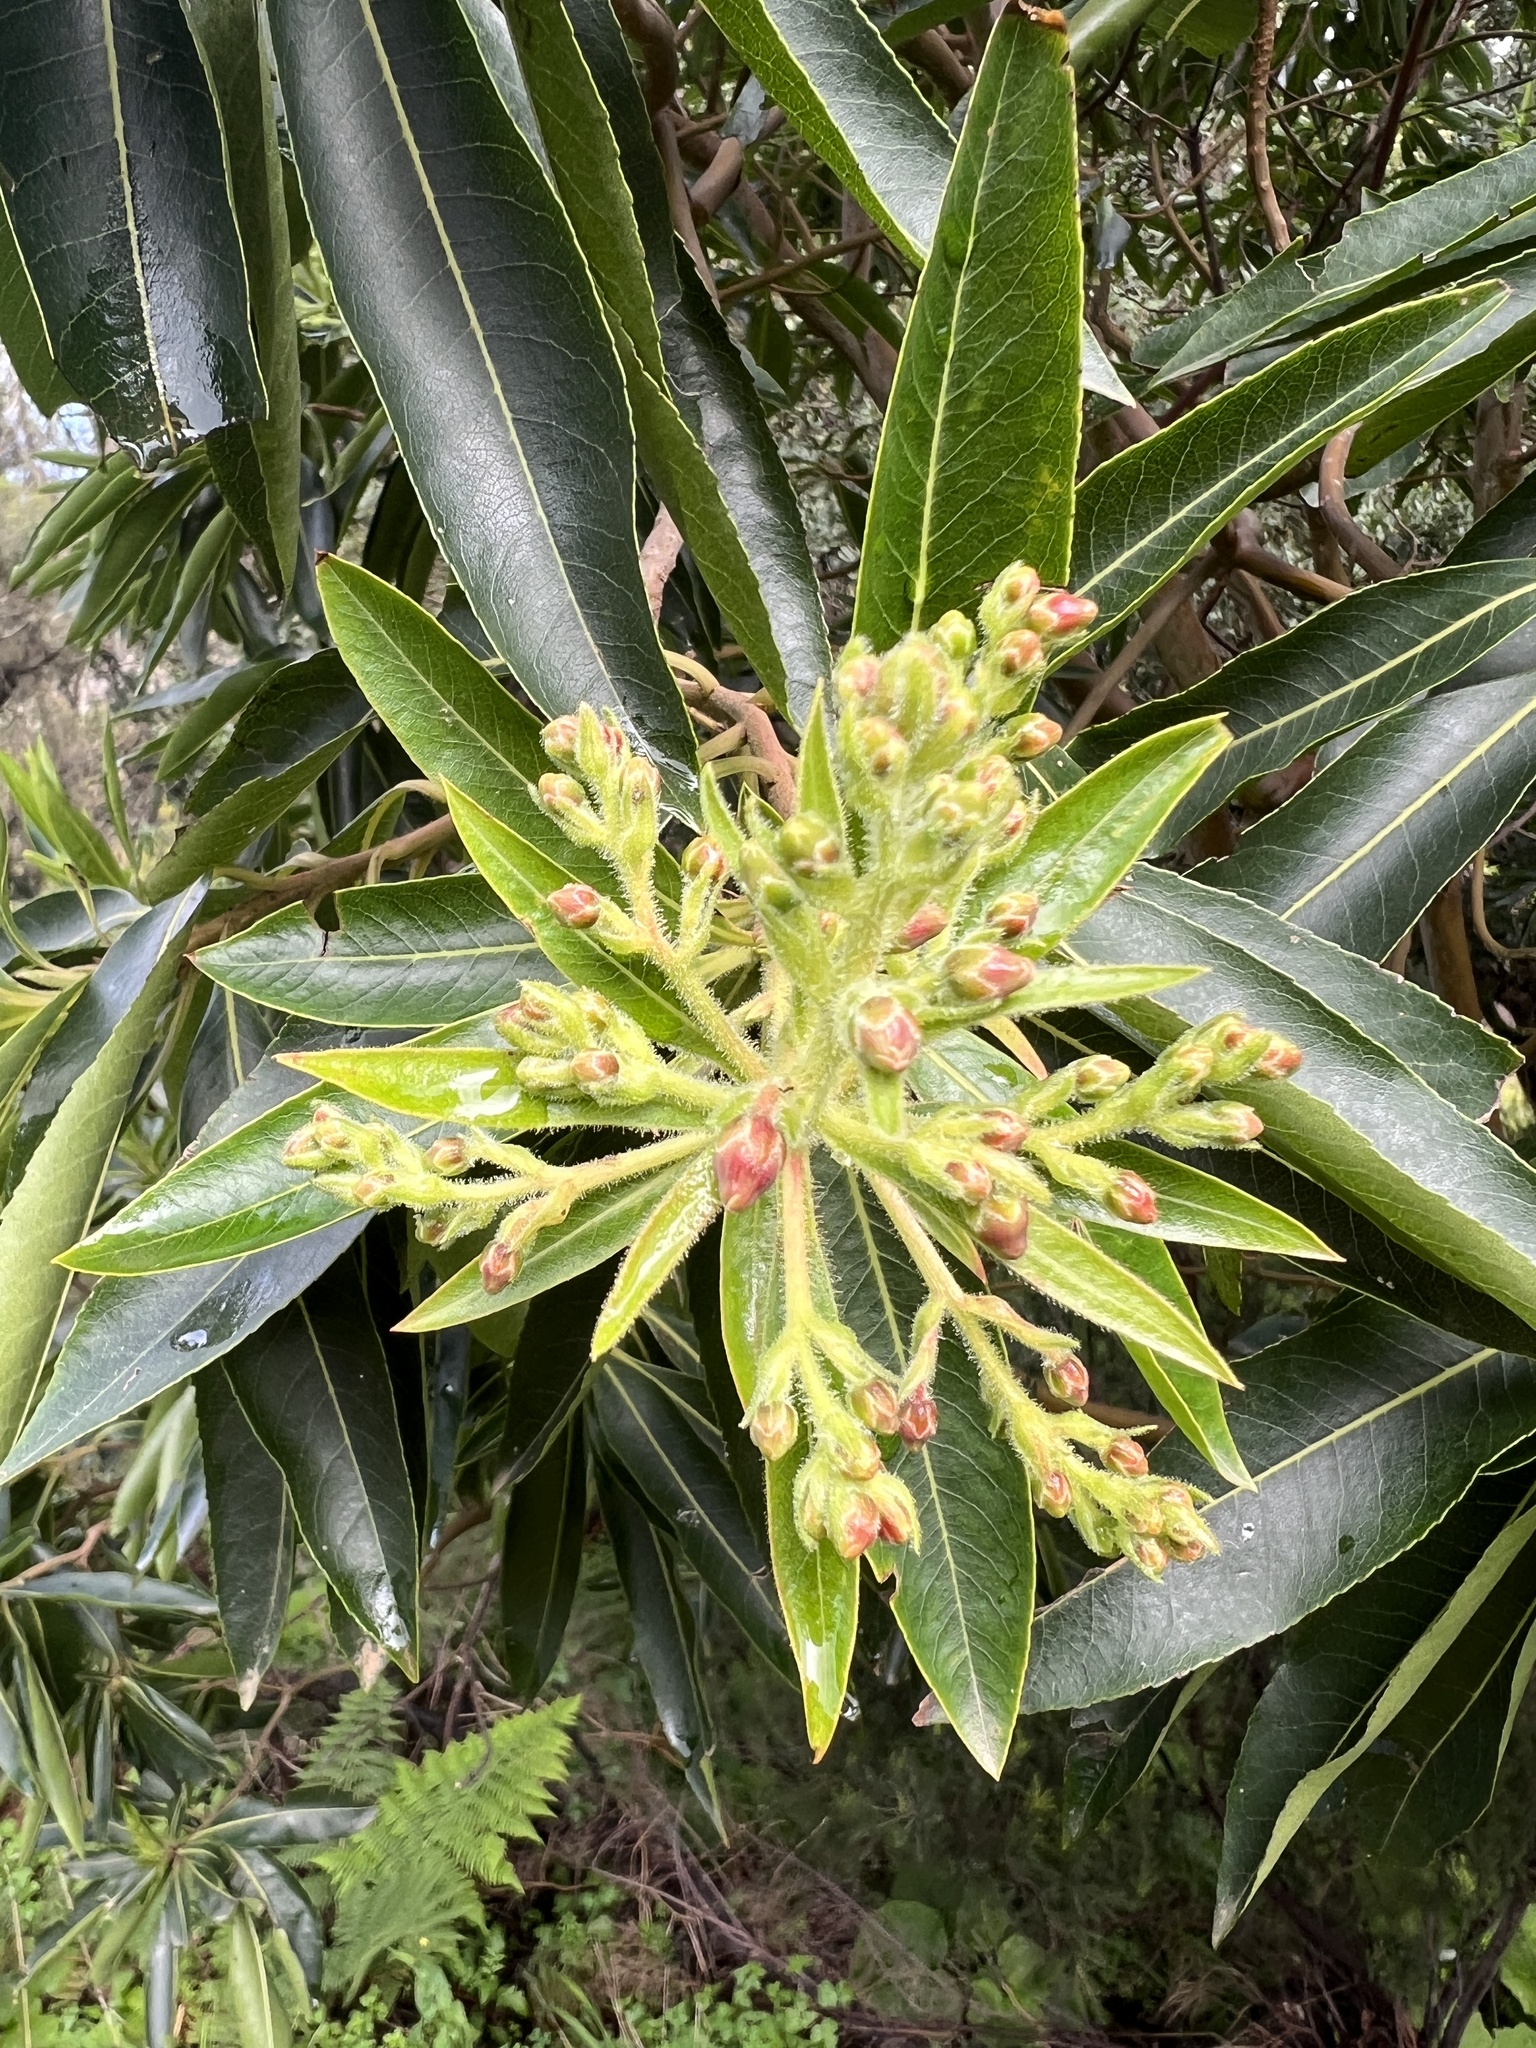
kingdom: Plantae
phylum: Tracheophyta
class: Magnoliopsida
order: Ericales
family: Ericaceae
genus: Arbutus
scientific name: Arbutus canariensis
